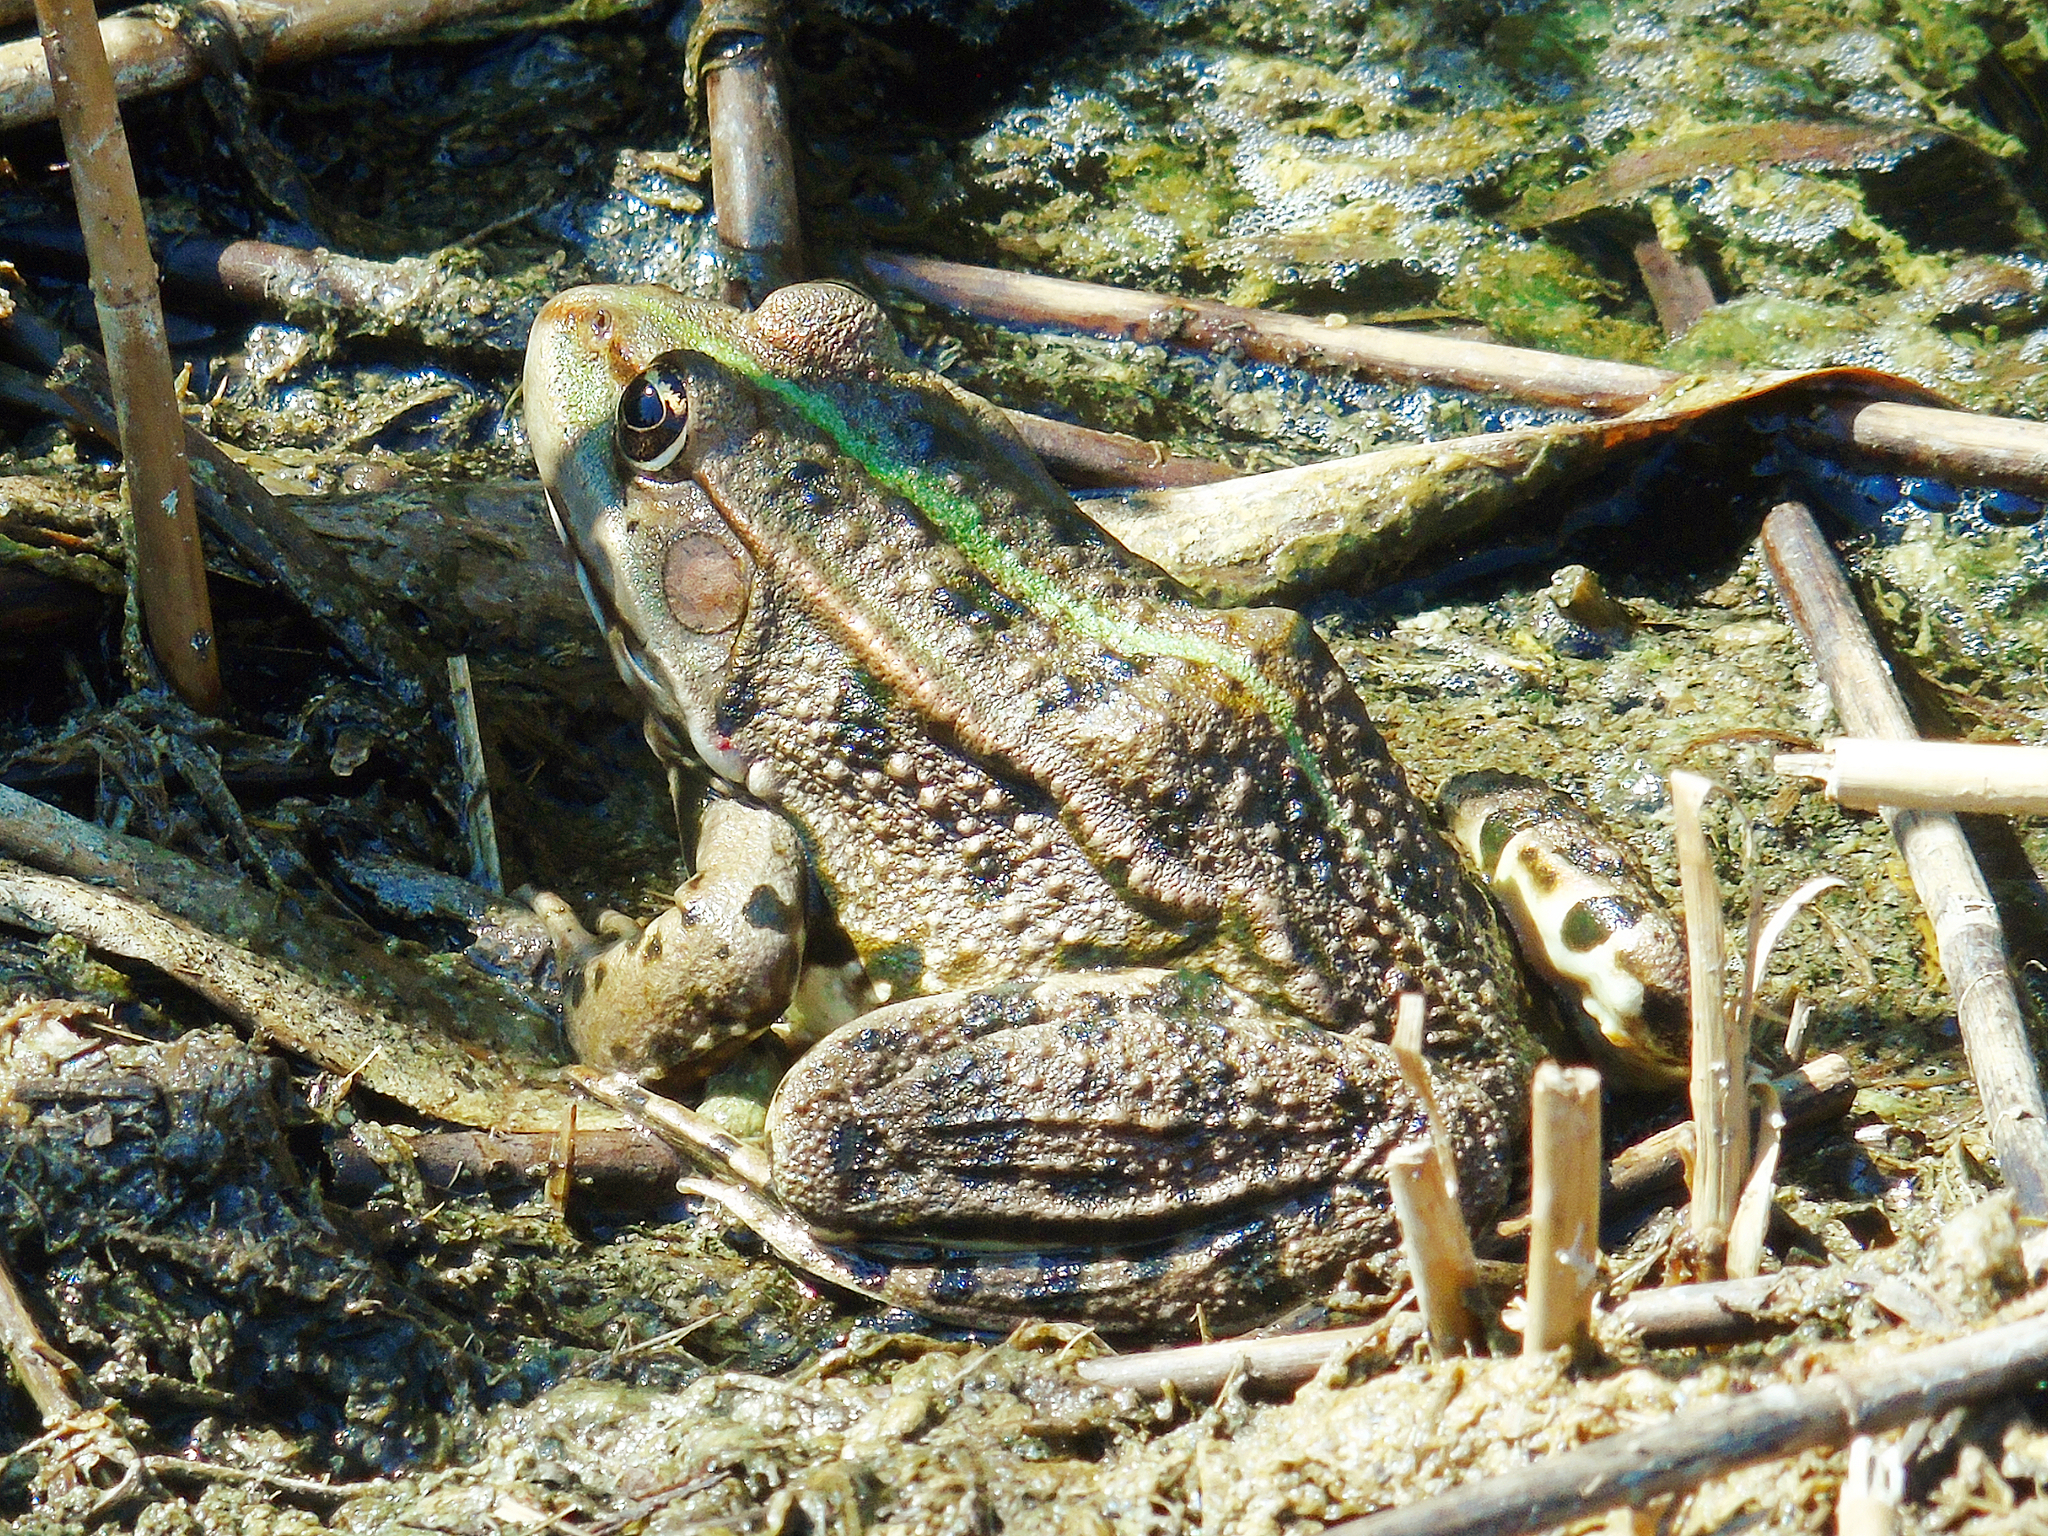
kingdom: Animalia
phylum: Chordata
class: Amphibia
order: Anura
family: Ranidae
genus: Pelophylax
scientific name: Pelophylax ridibundus
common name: Marsh frog
